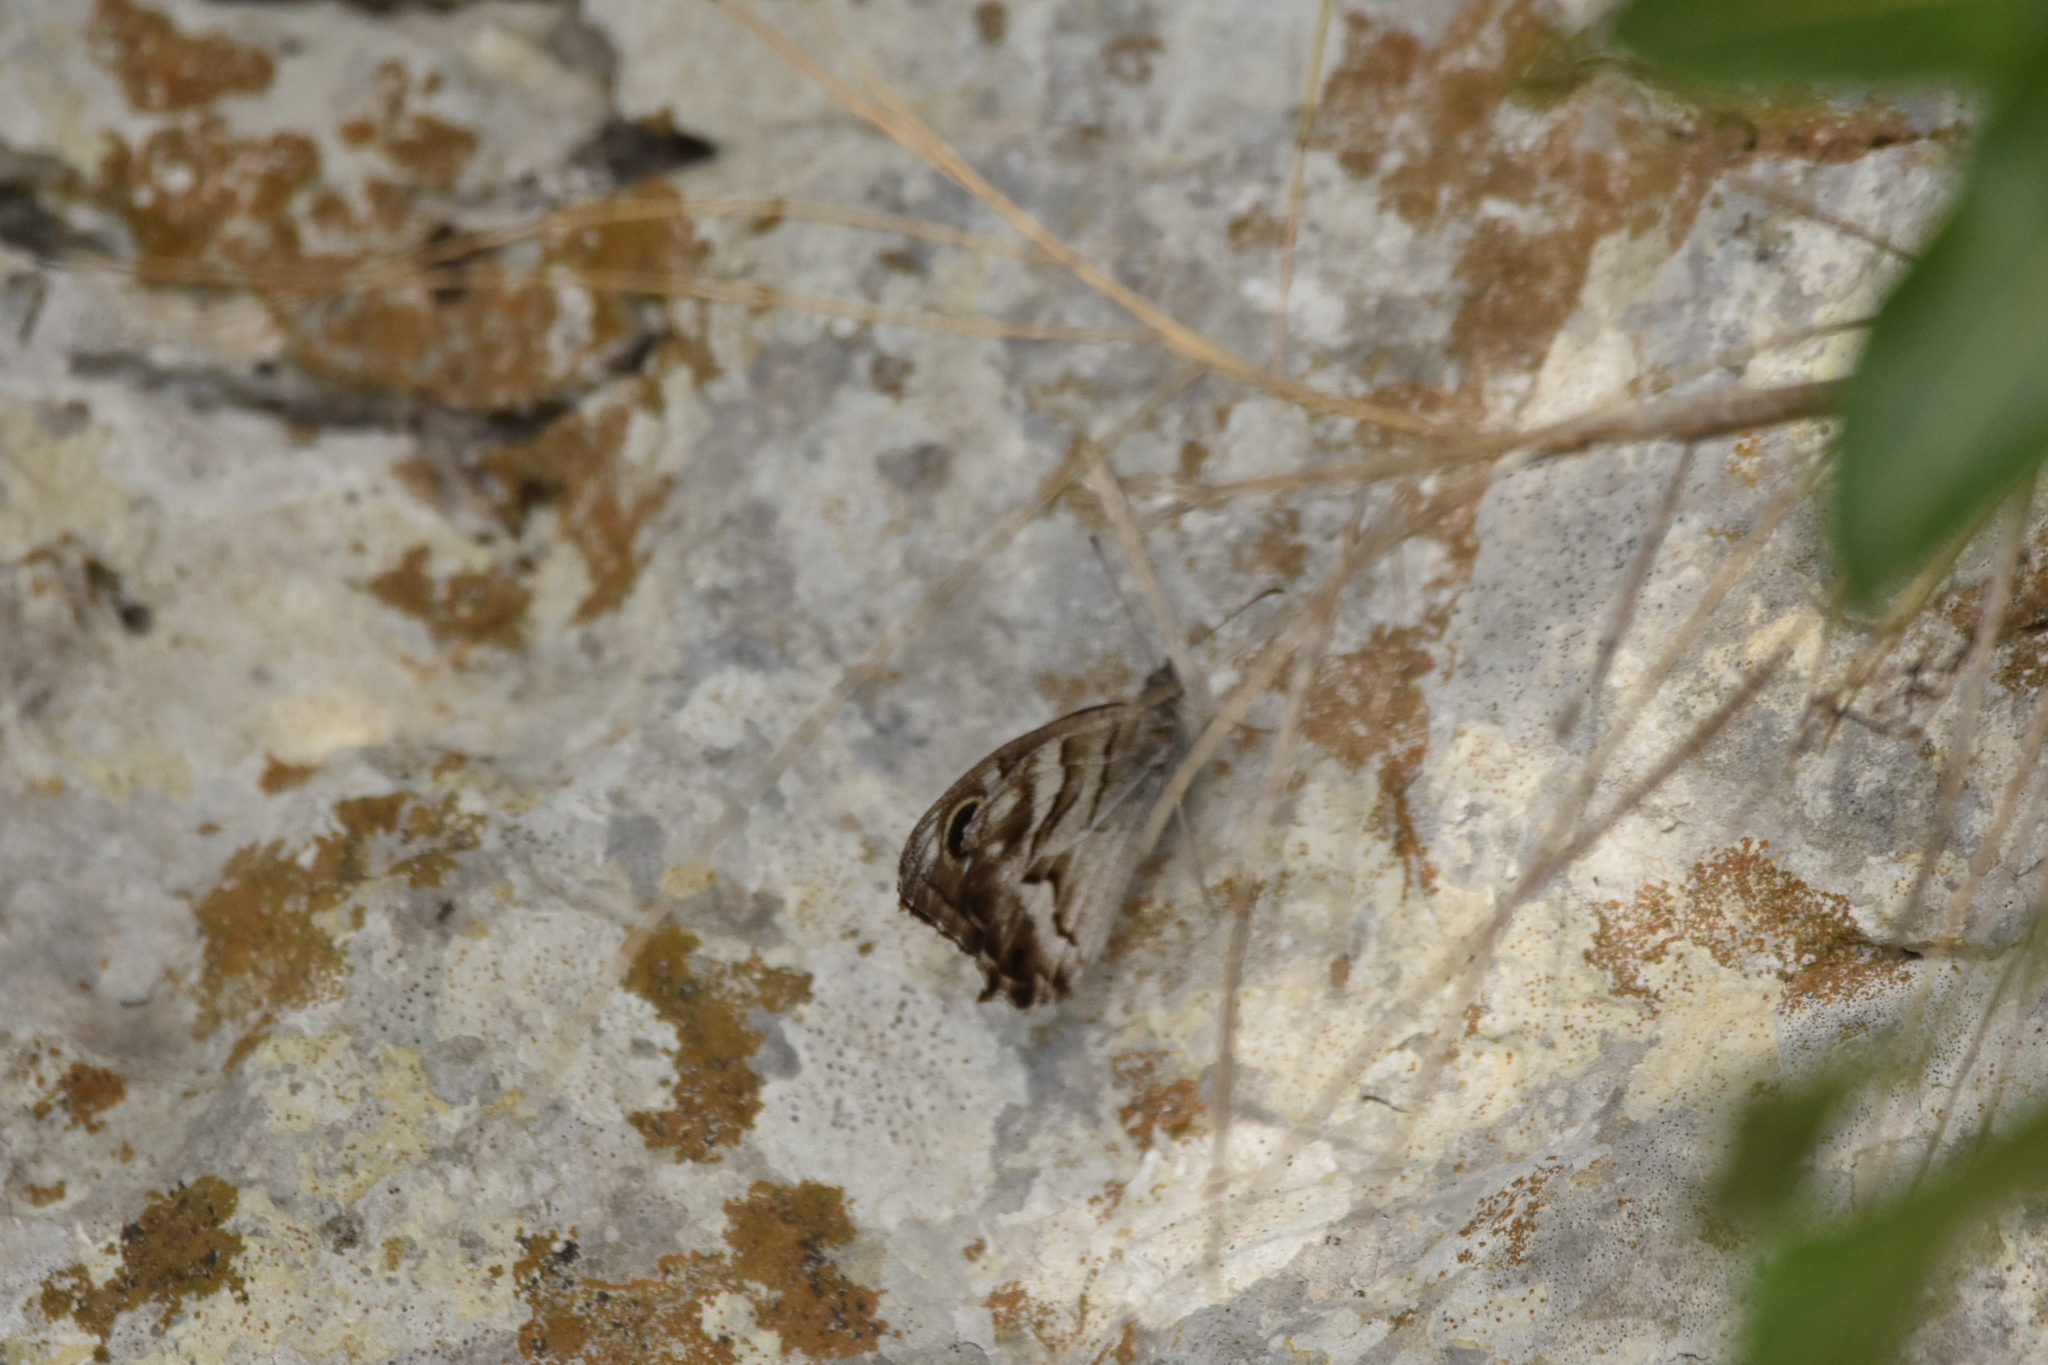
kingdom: Animalia
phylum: Arthropoda
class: Insecta
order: Lepidoptera
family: Nymphalidae
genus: Hipparchia
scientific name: Hipparchia fidia
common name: Striped grayling
